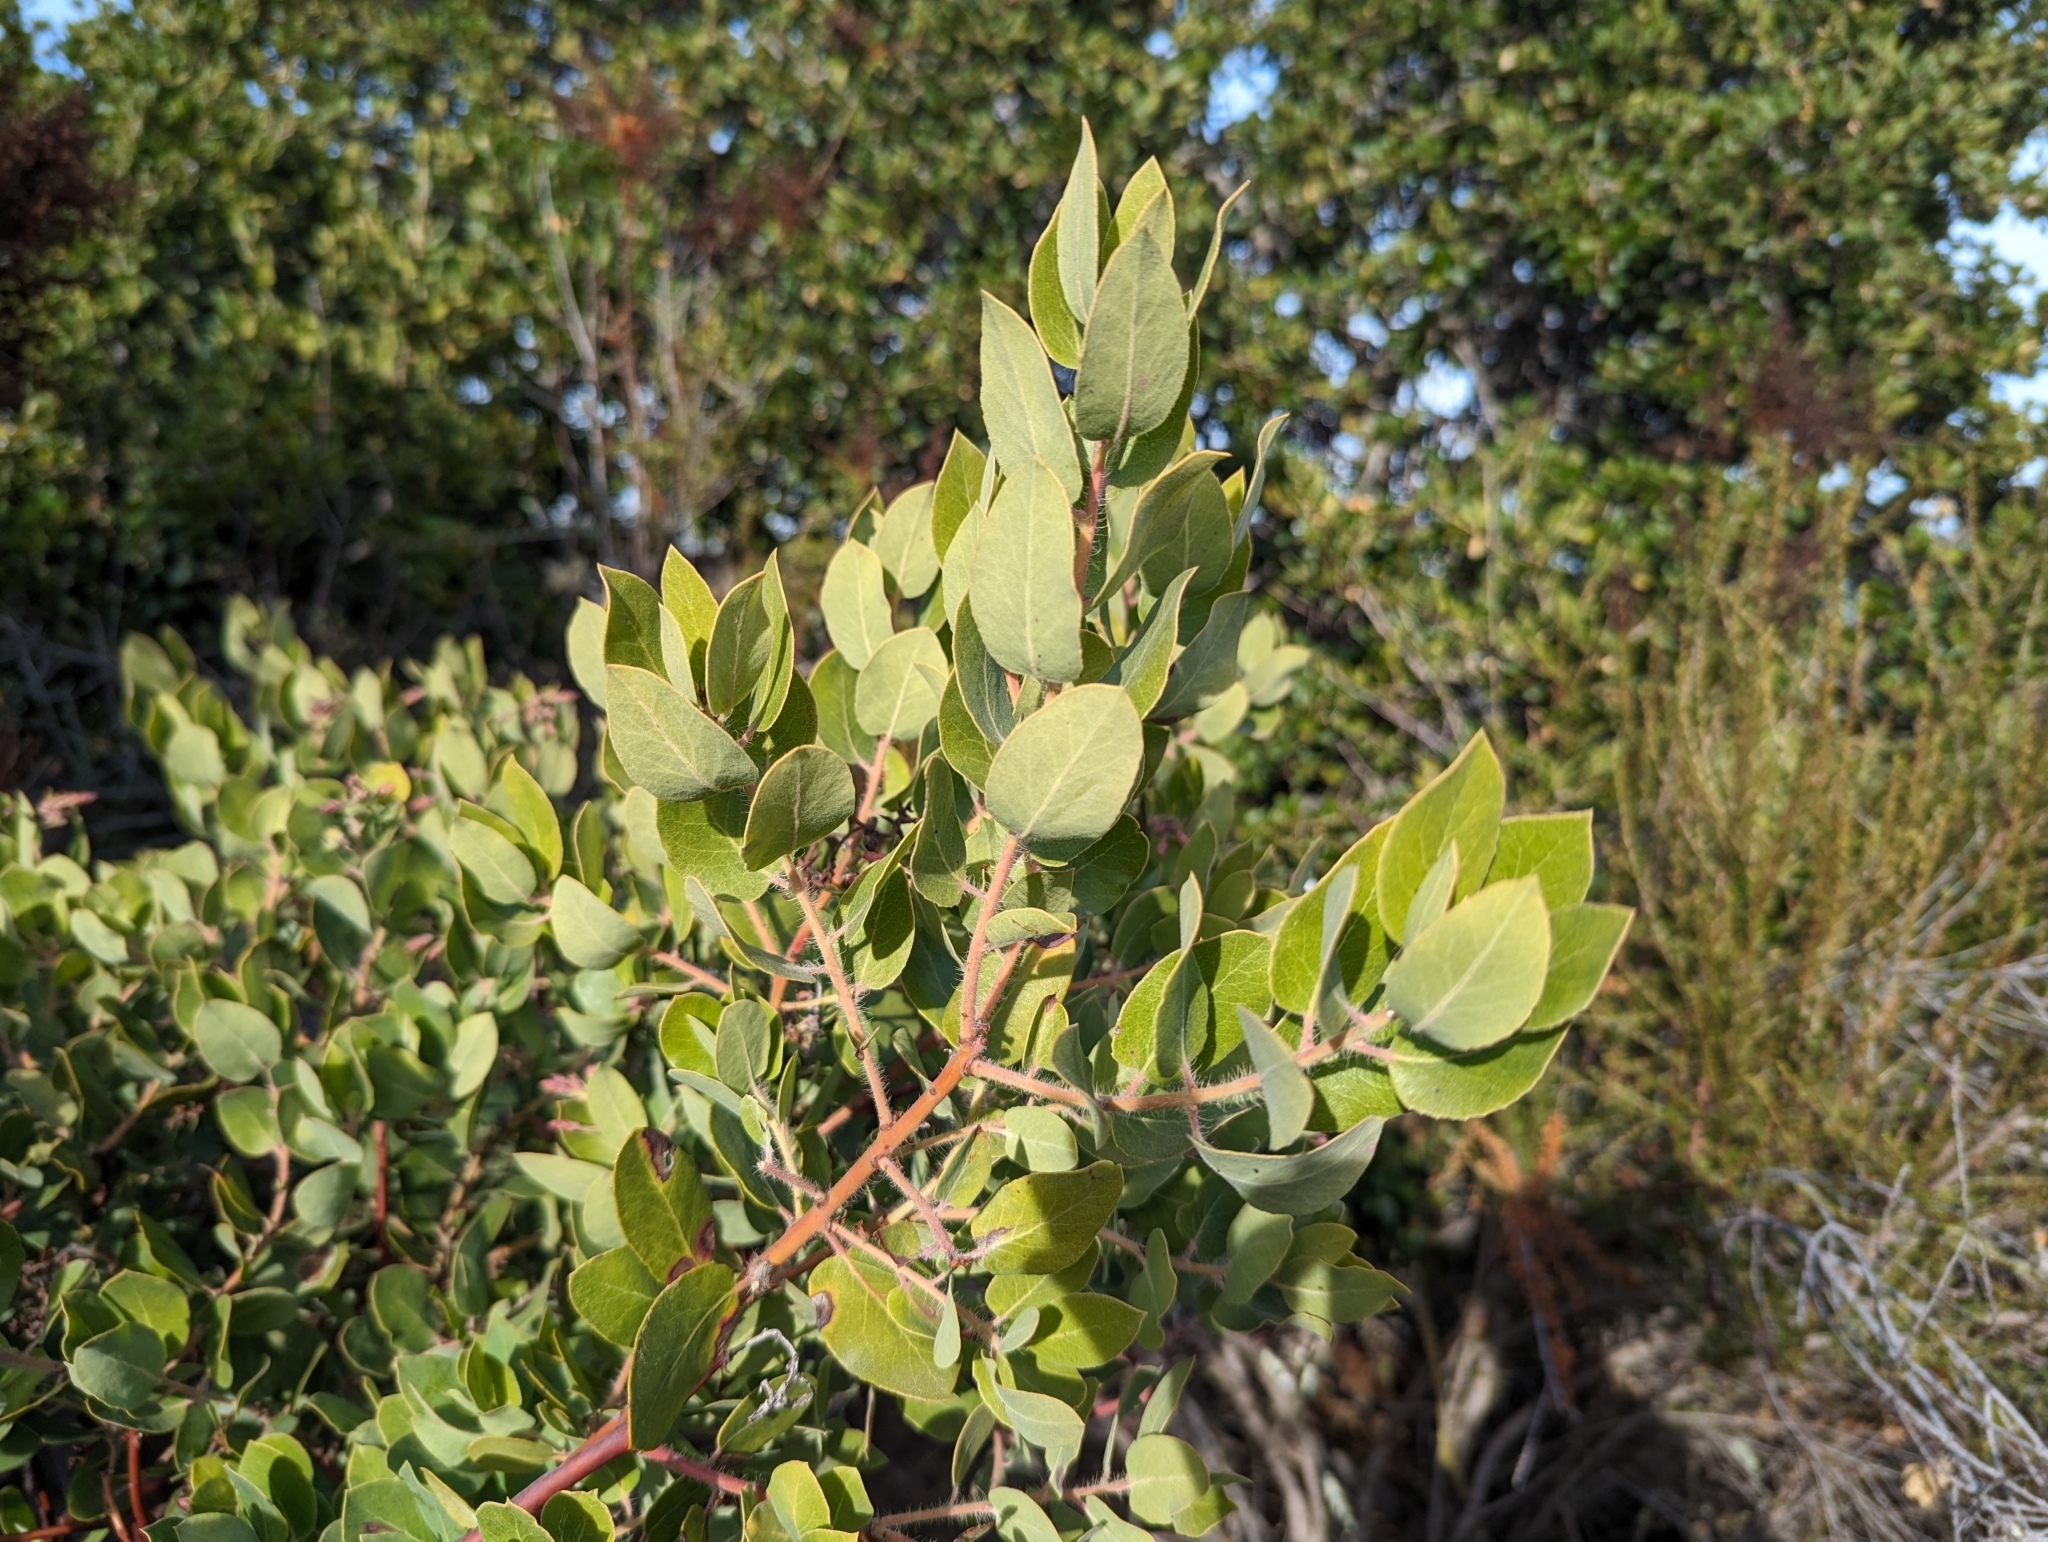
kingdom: Plantae
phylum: Tracheophyta
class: Magnoliopsida
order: Ericales
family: Ericaceae
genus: Arctostaphylos
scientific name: Arctostaphylos crustacea
